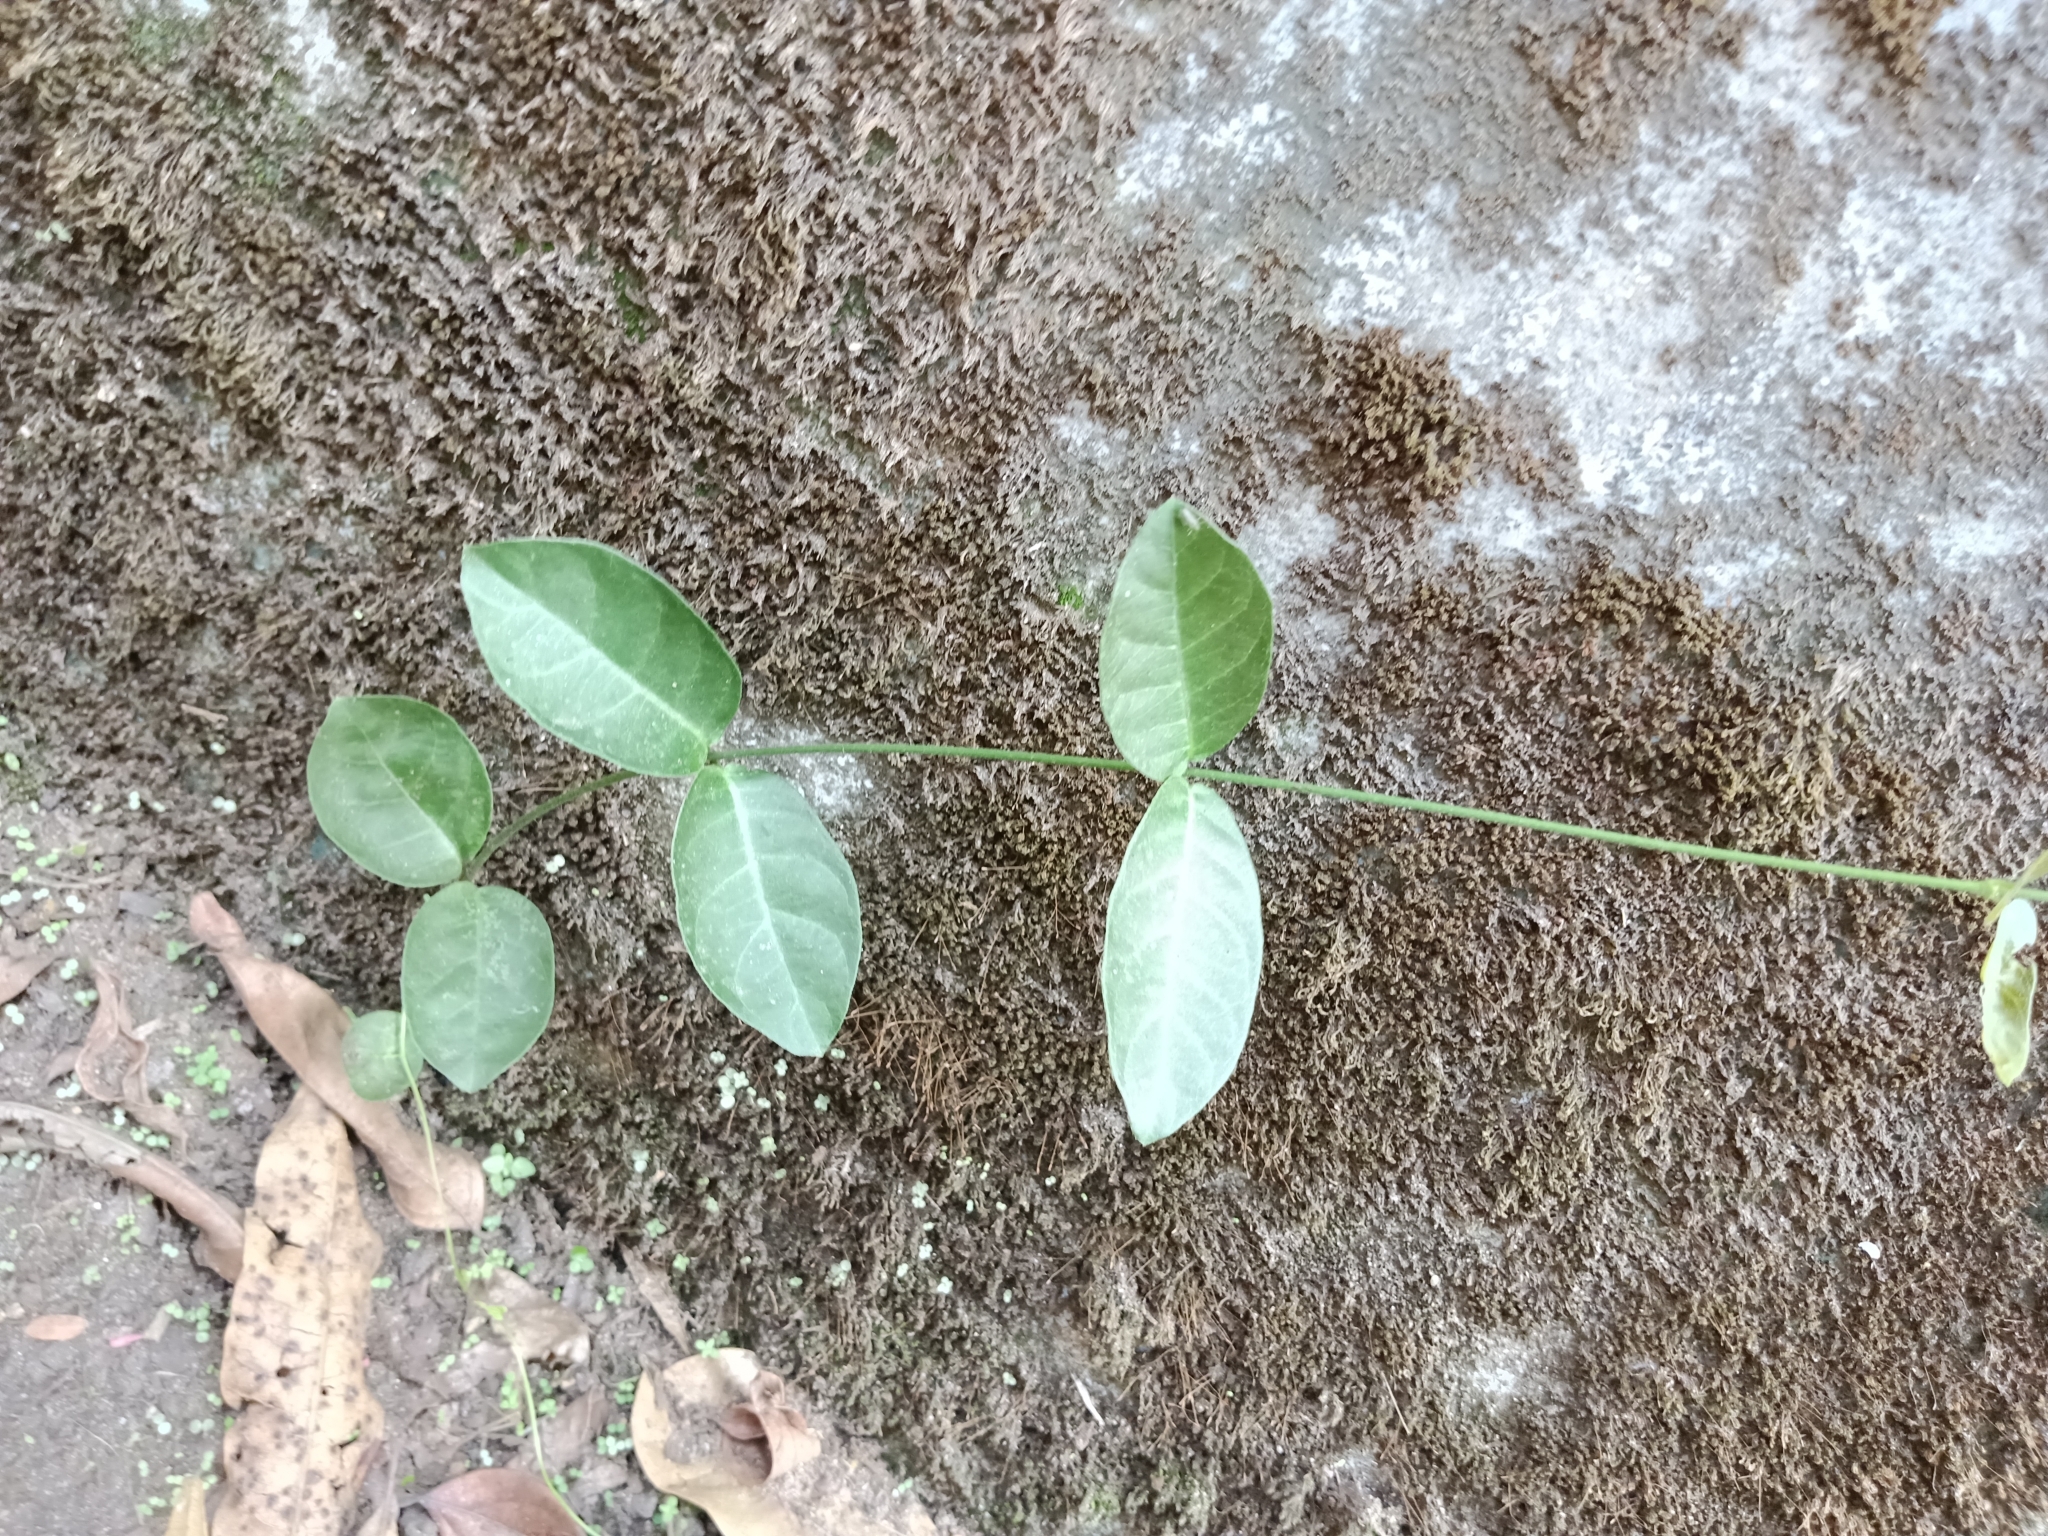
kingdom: Plantae
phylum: Tracheophyta
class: Magnoliopsida
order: Gentianales
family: Apocynaceae
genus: Ichnocarpus
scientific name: Ichnocarpus frutescens
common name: Ichnocarpus
